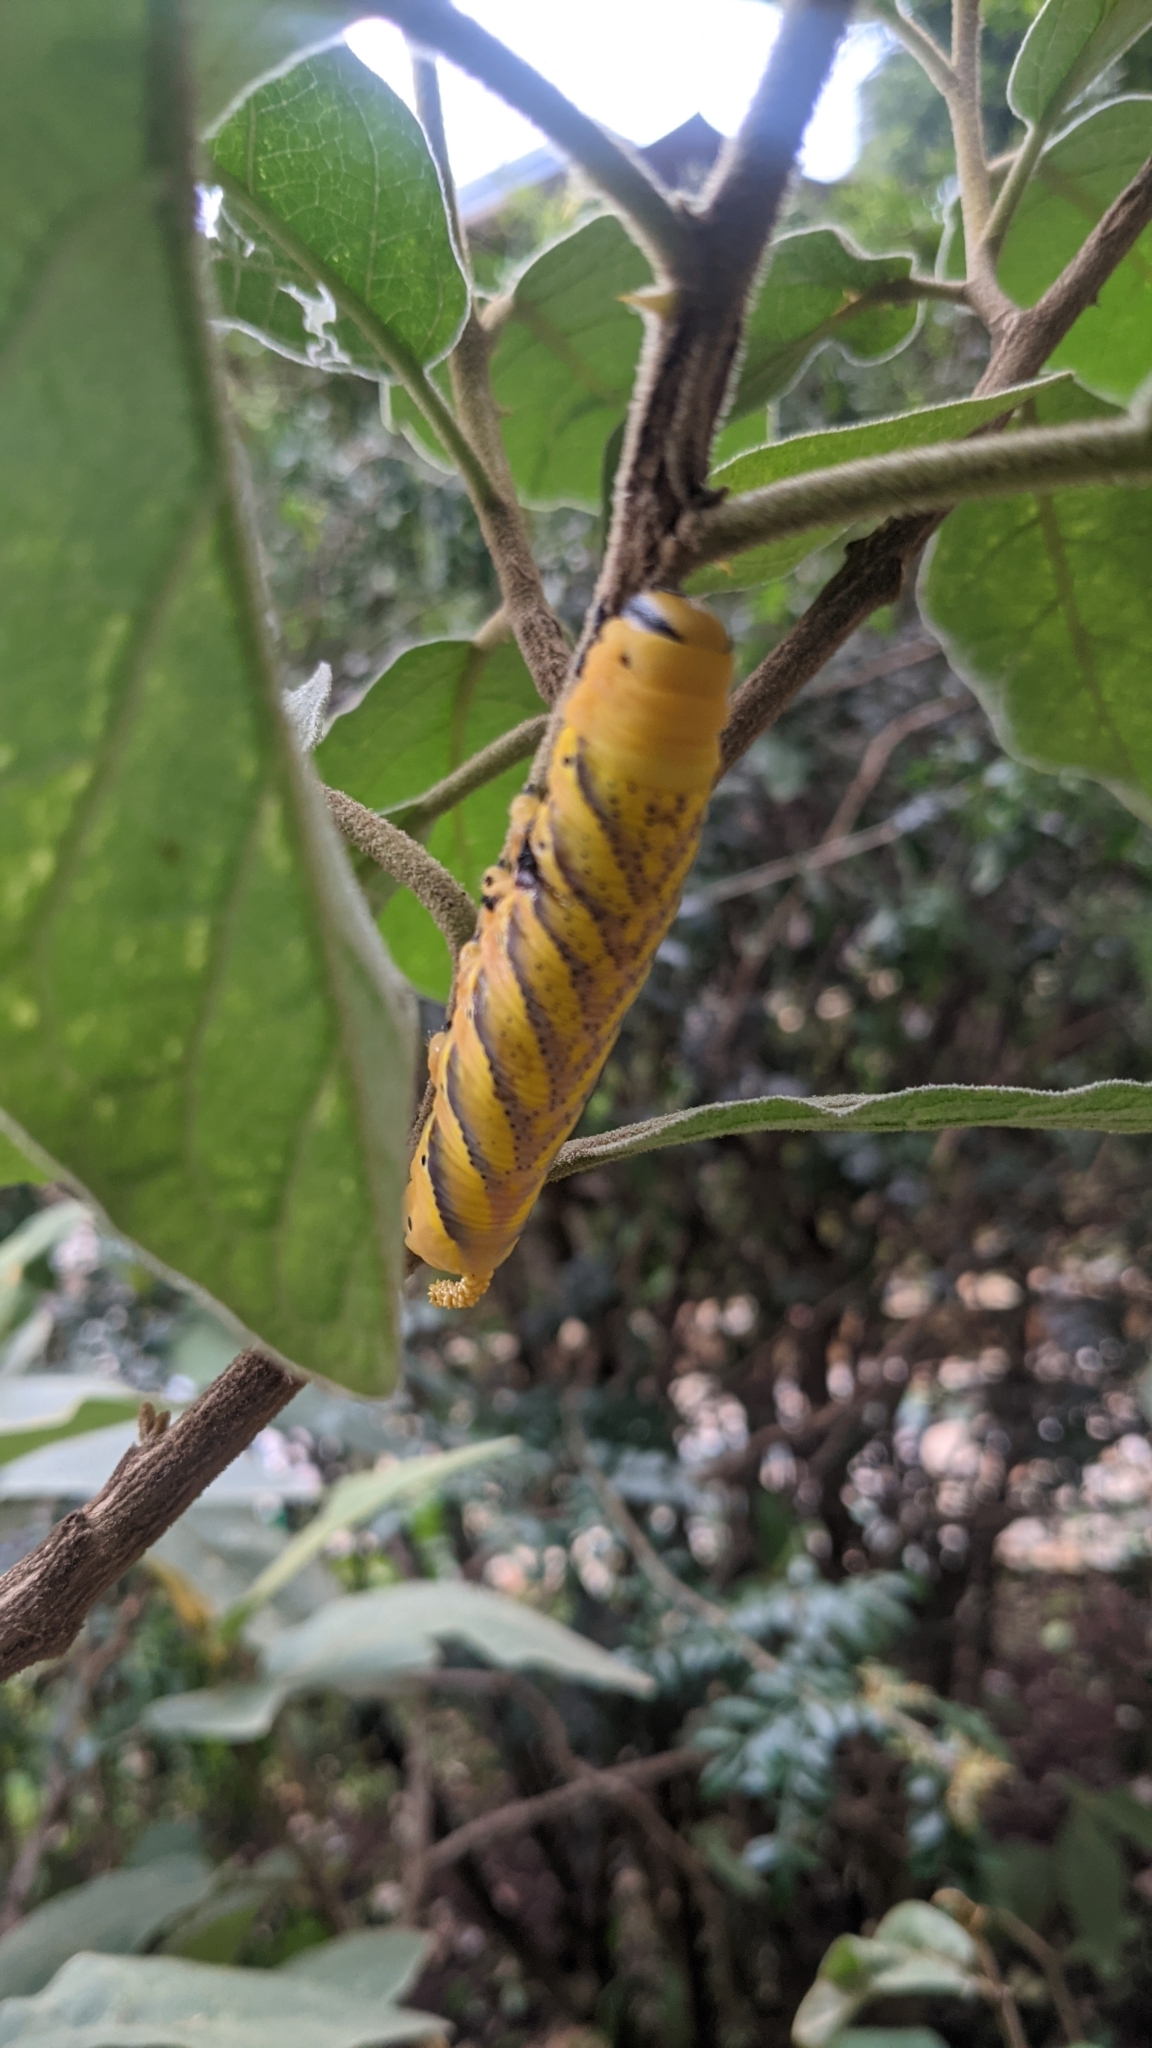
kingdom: Animalia
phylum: Arthropoda
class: Insecta
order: Lepidoptera
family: Sphingidae
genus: Acherontia
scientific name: Acherontia atropos
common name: Death's-head hawk moth
